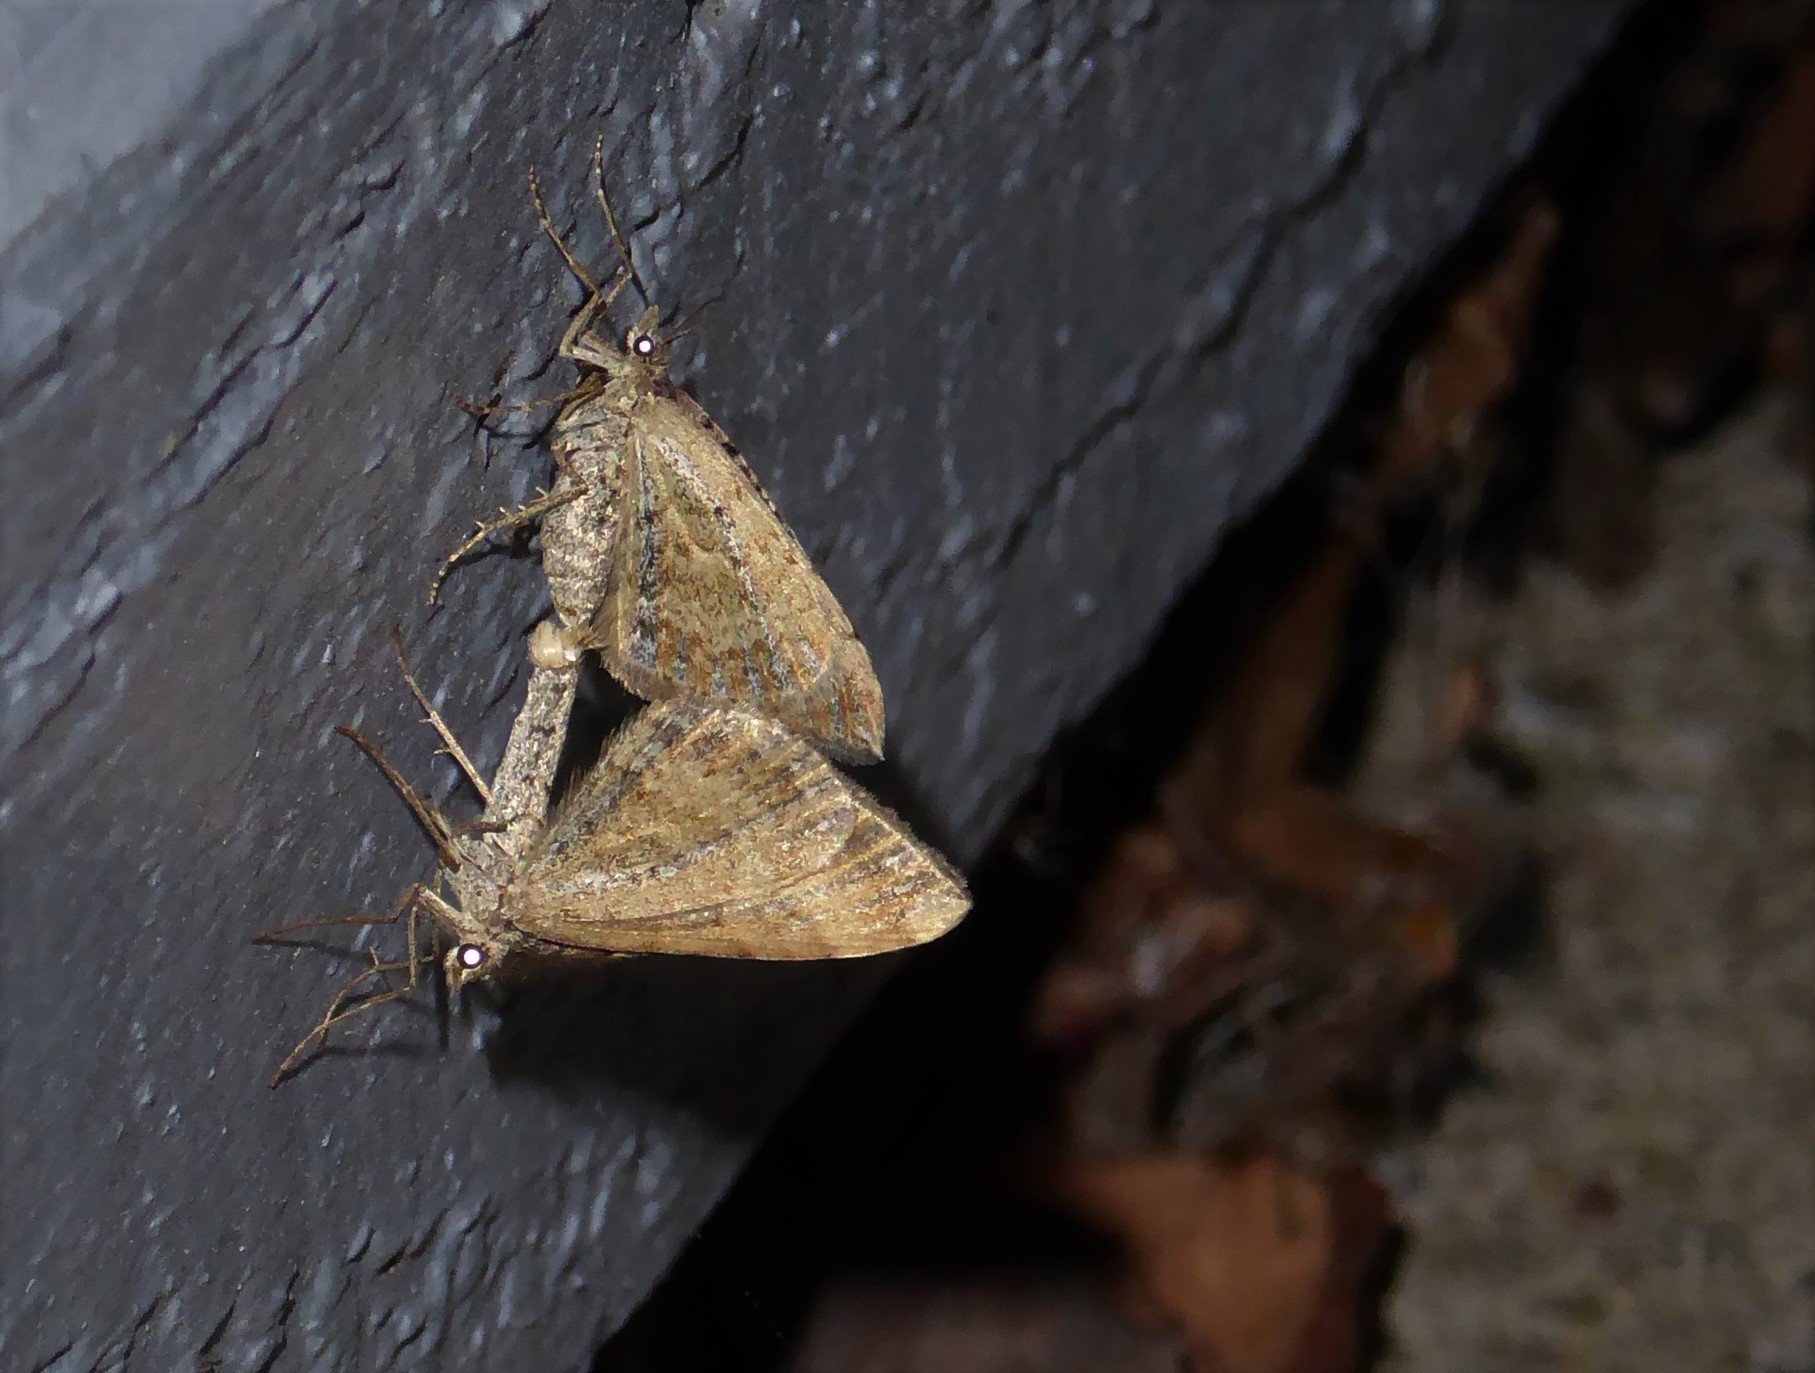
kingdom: Animalia
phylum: Arthropoda
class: Insecta
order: Lepidoptera
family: Geometridae
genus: Xanthorhoe
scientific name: Xanthorhoe semifissata
